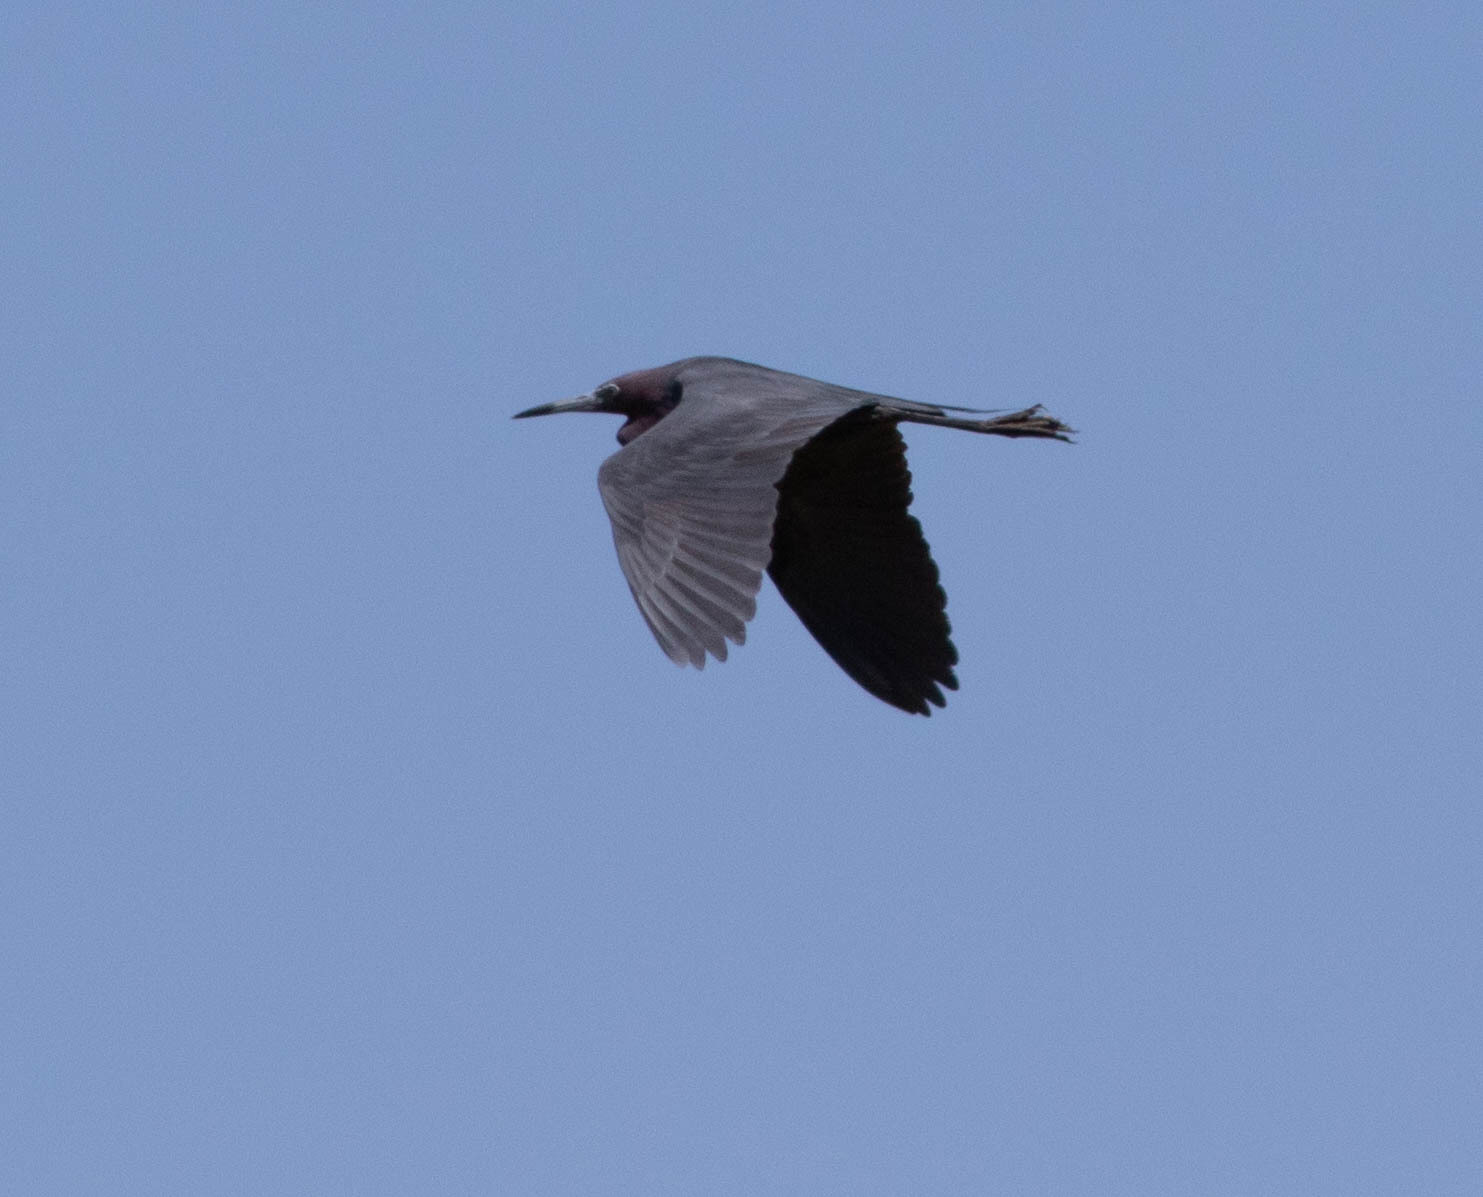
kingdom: Animalia
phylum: Chordata
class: Aves
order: Pelecaniformes
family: Ardeidae
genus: Egretta
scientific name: Egretta caerulea
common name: Little blue heron
